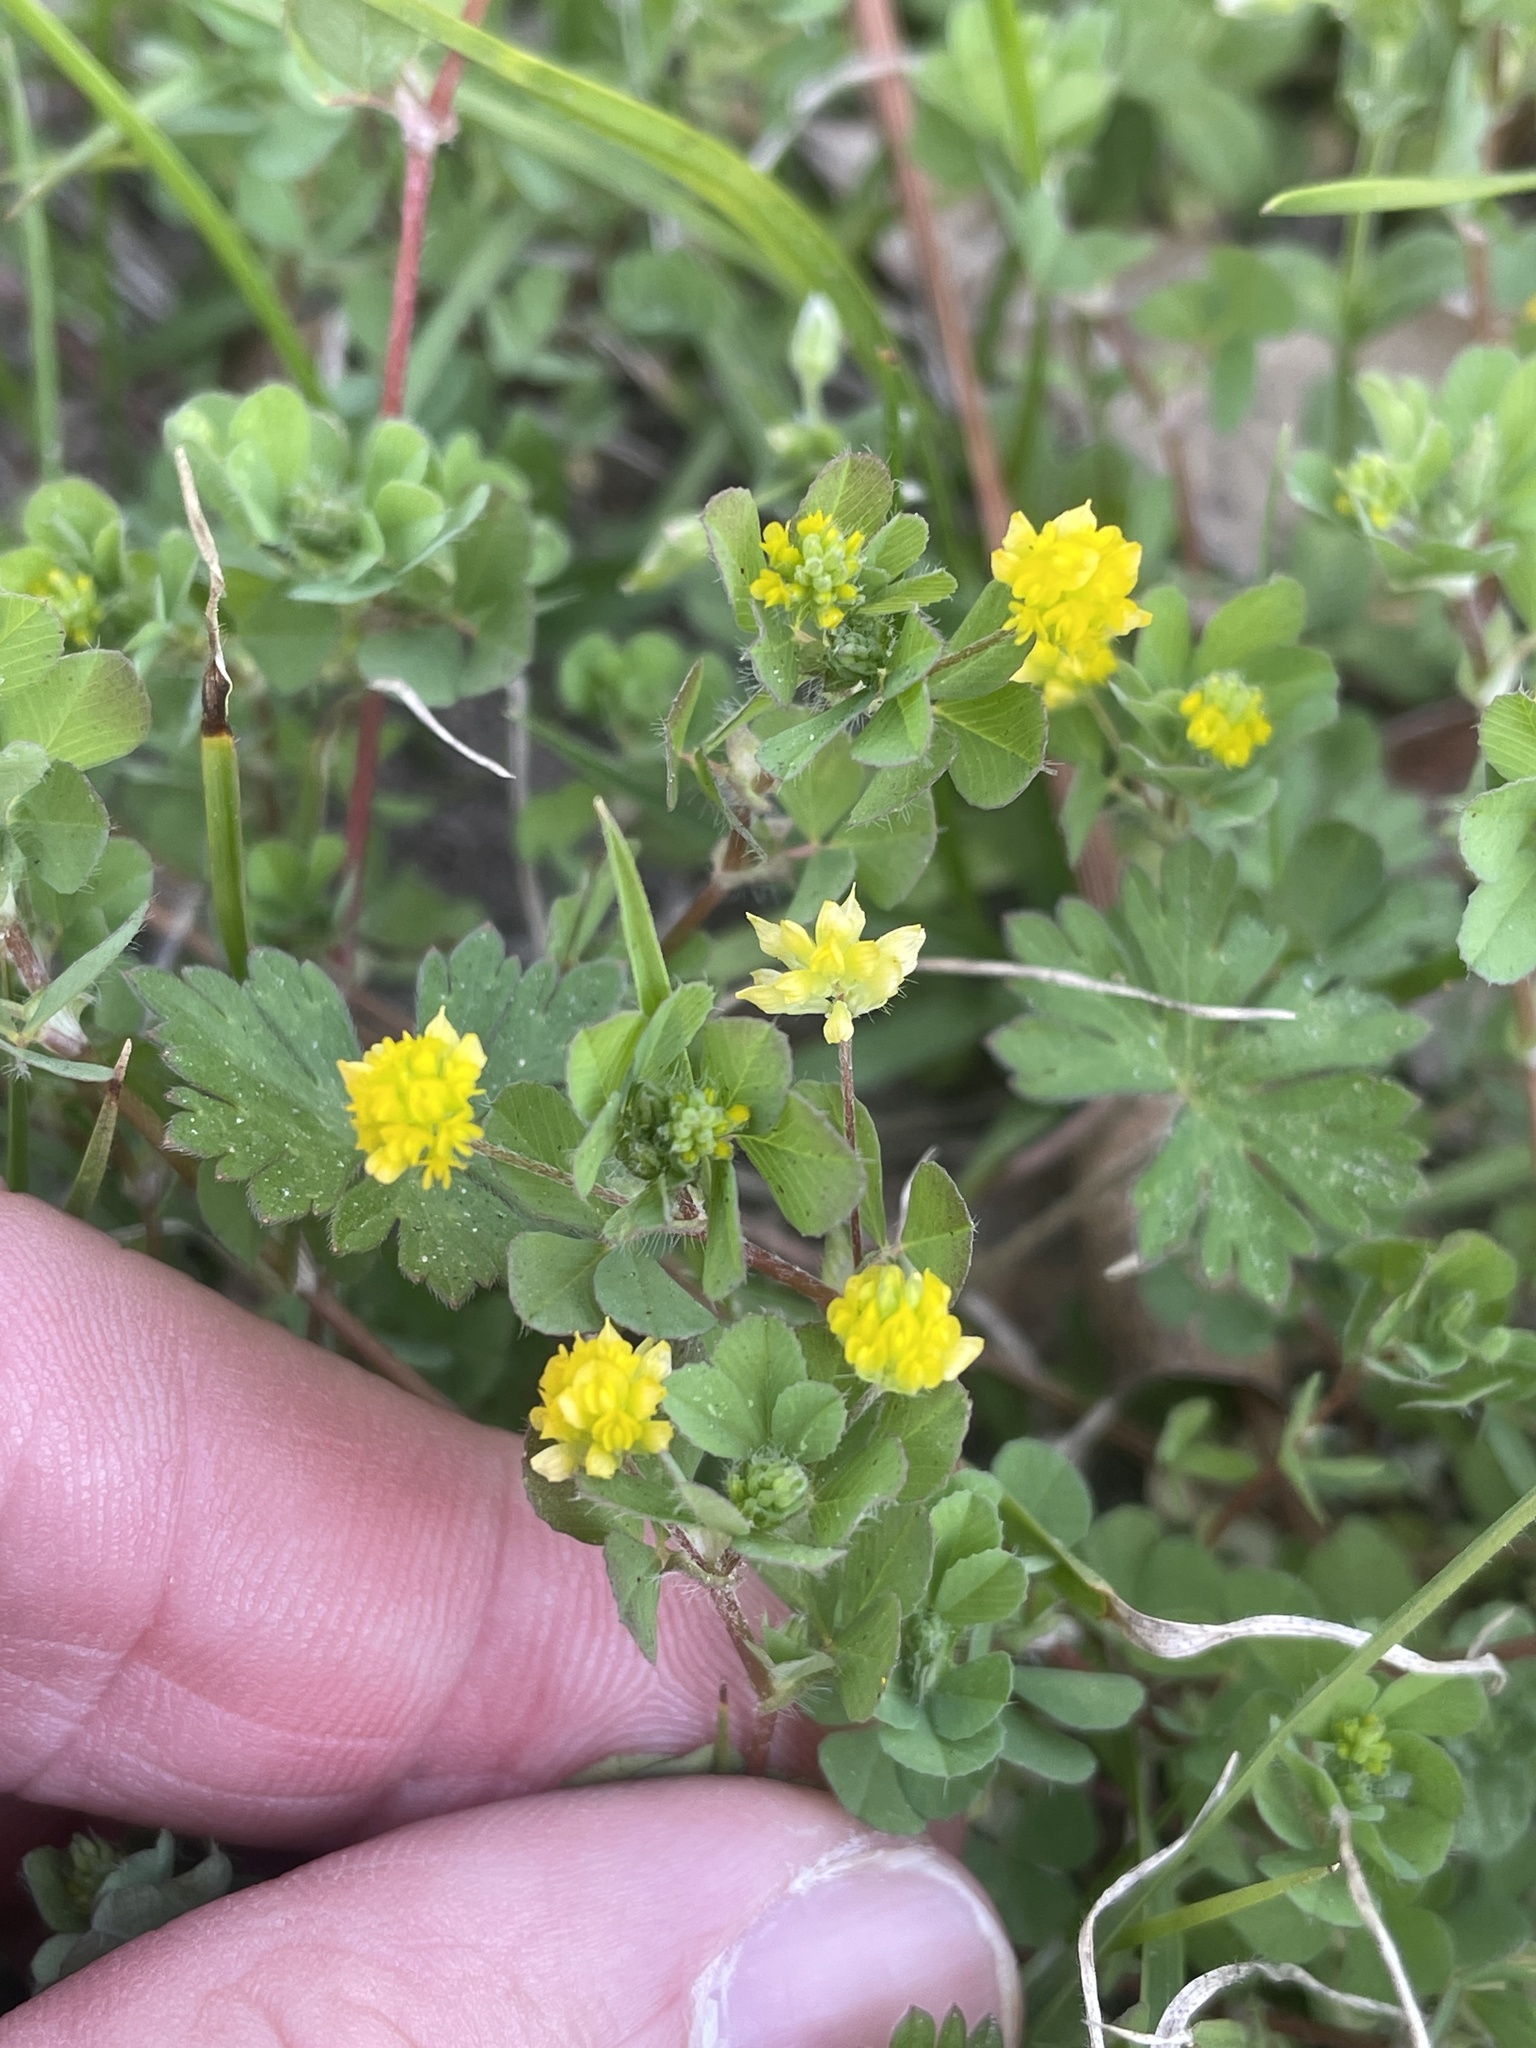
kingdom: Plantae
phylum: Tracheophyta
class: Magnoliopsida
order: Fabales
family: Fabaceae
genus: Trifolium
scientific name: Trifolium dubium
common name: Suckling clover
